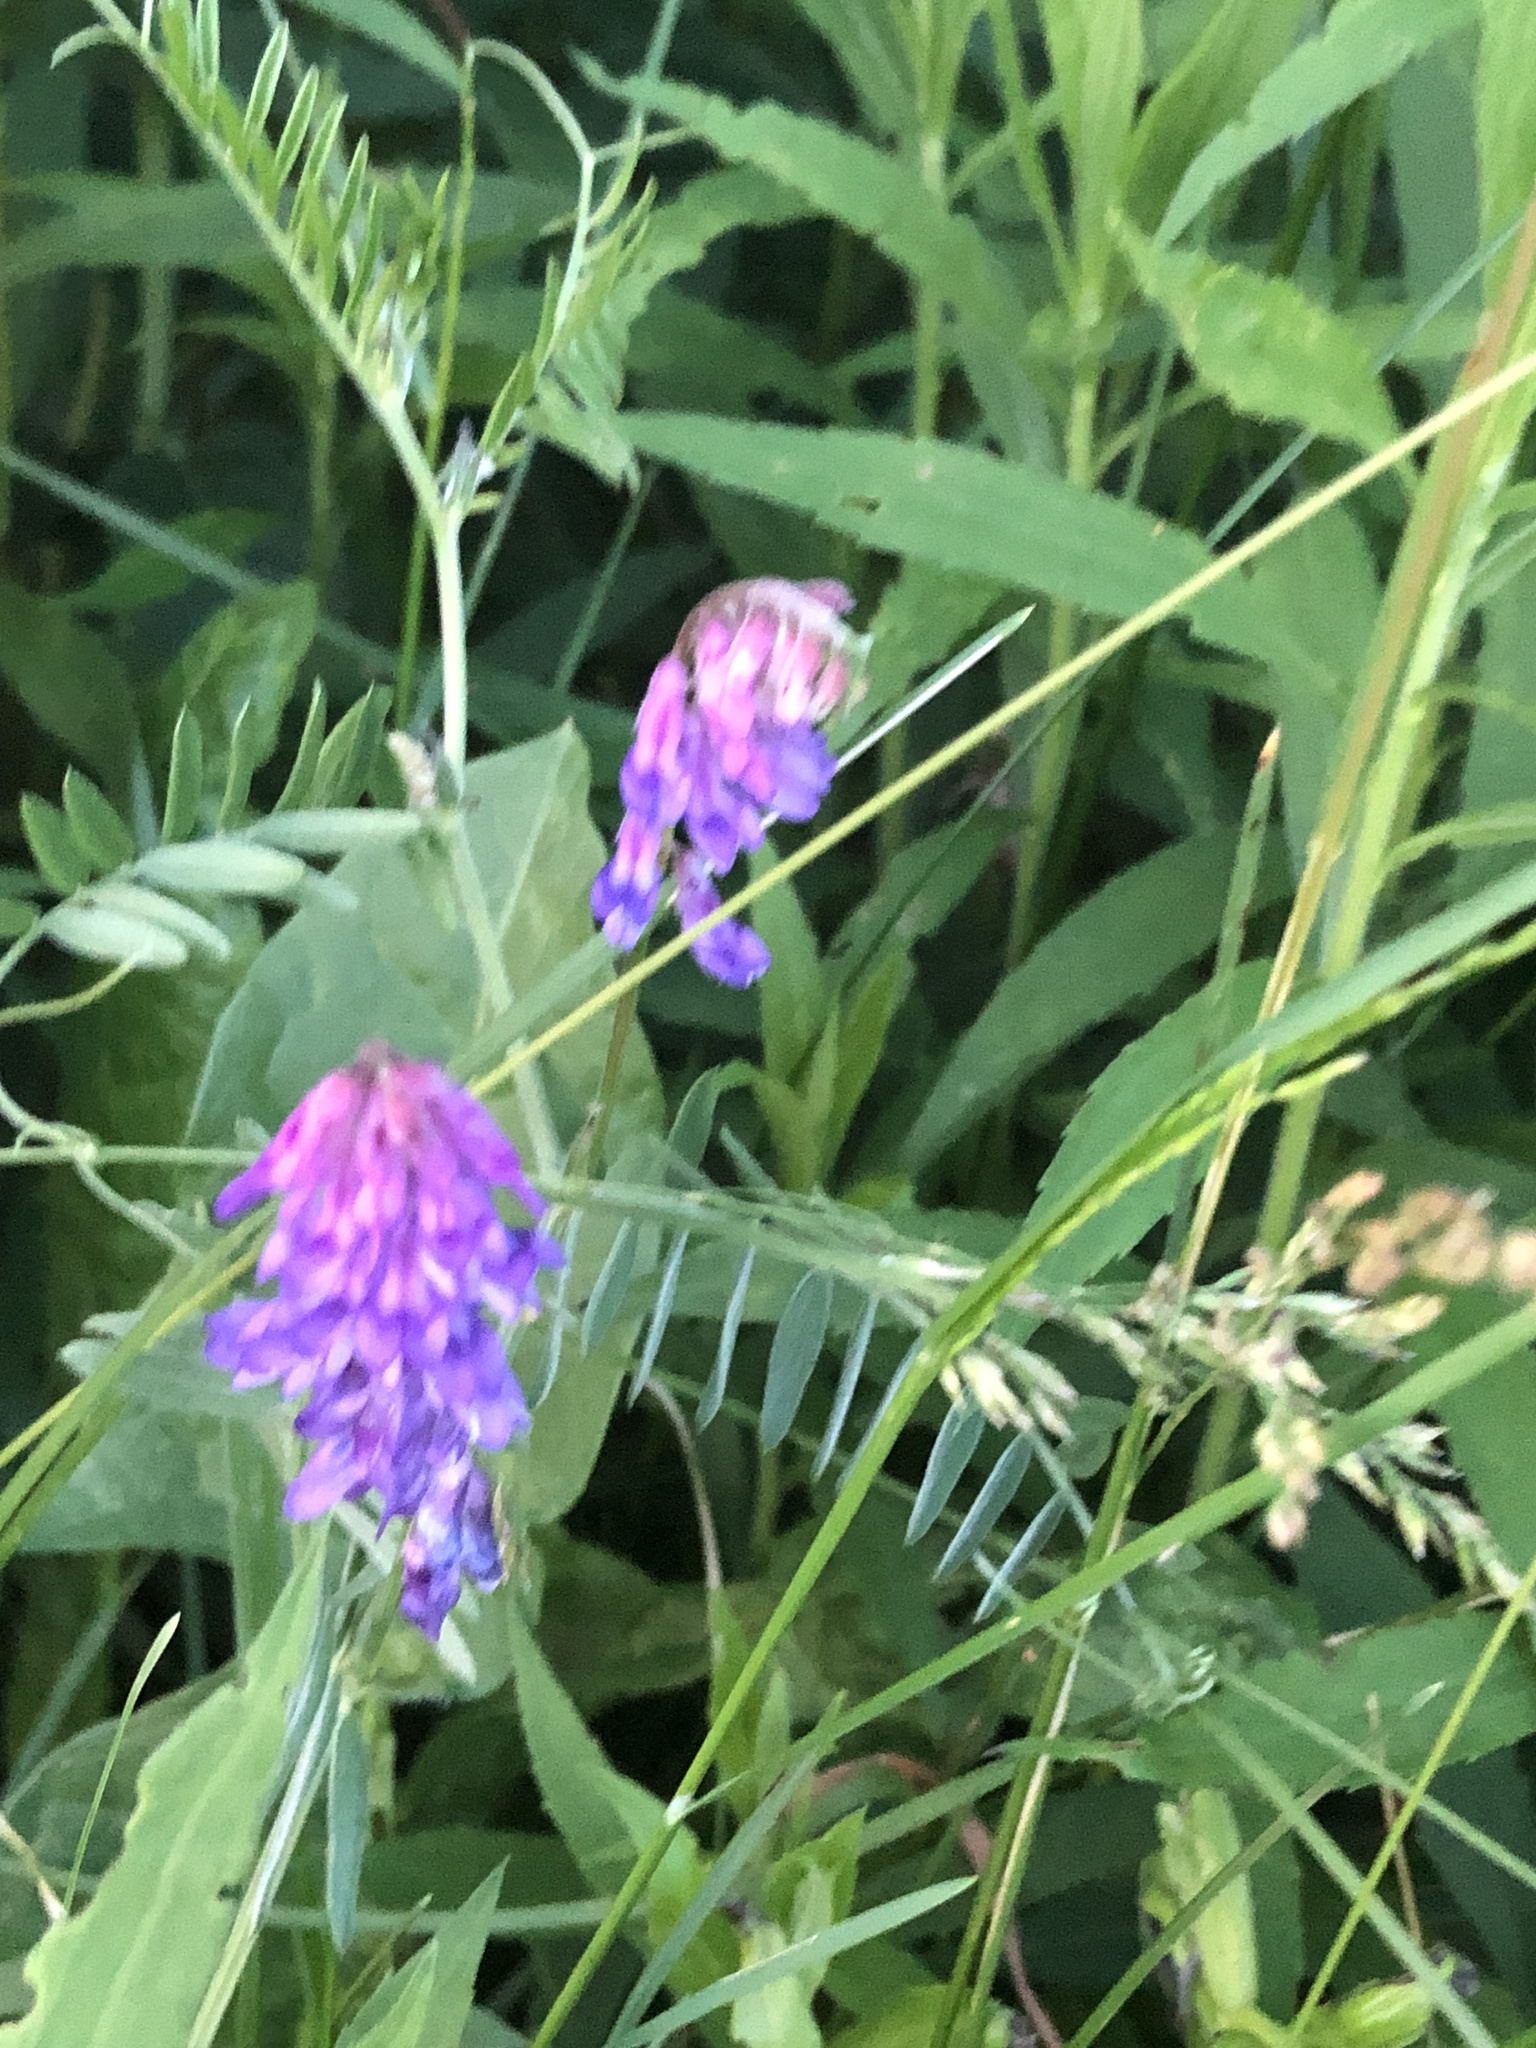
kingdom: Plantae
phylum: Tracheophyta
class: Magnoliopsida
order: Fabales
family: Fabaceae
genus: Vicia
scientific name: Vicia cracca
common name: Bird vetch
